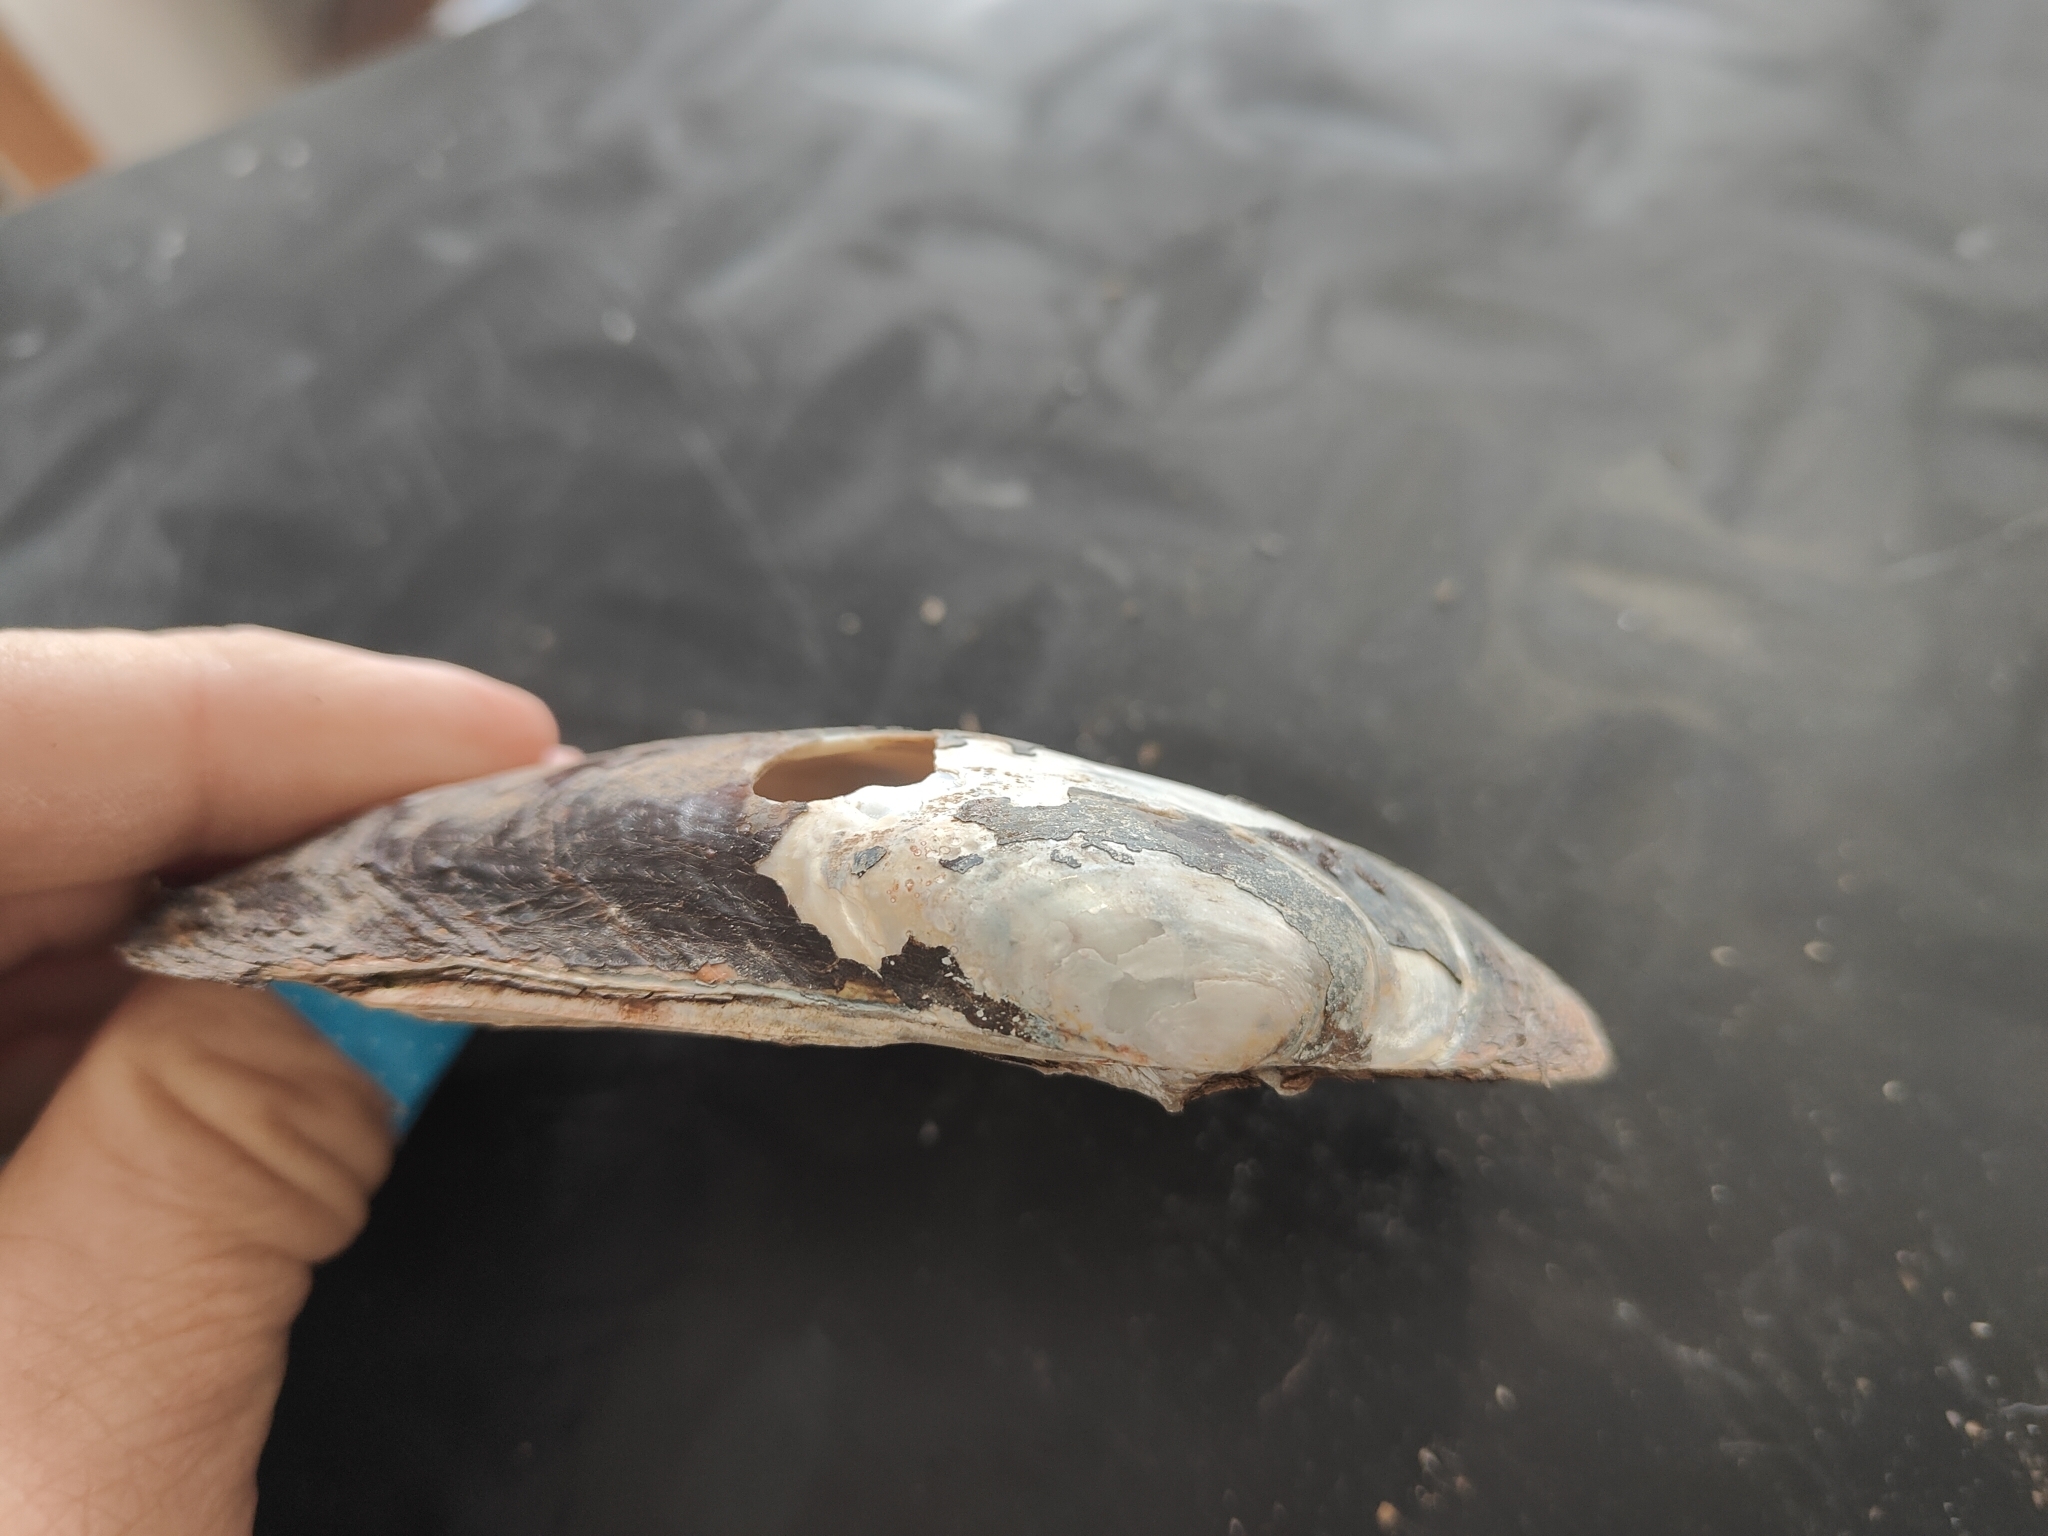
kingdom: Animalia
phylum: Mollusca
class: Bivalvia
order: Unionida
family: Unionidae
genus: Lampsilis
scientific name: Lampsilis siliquoidea
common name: Fatmucket
